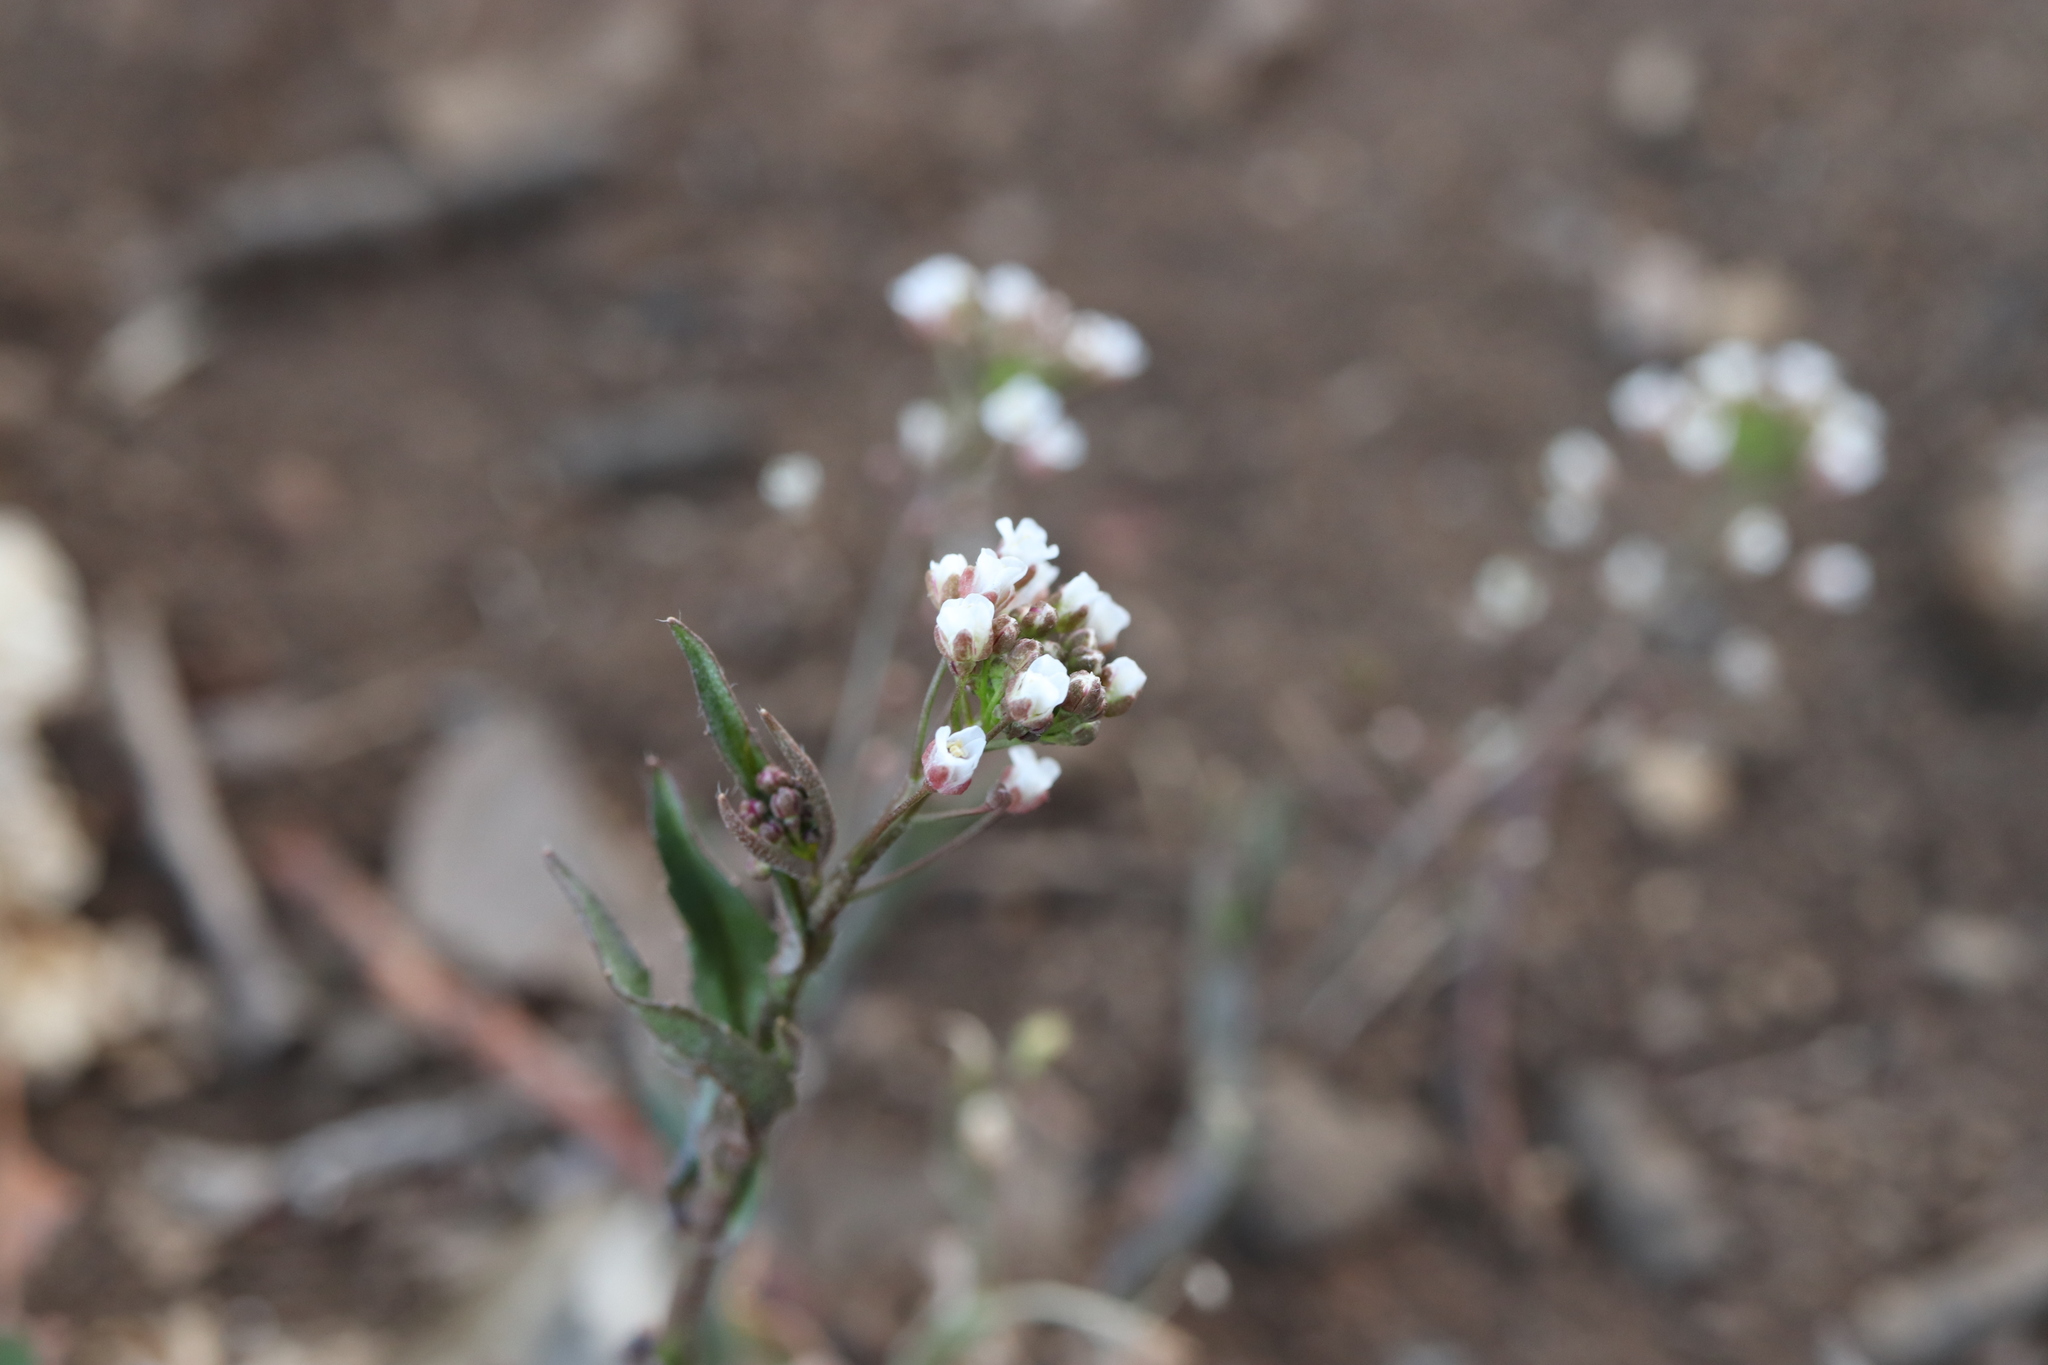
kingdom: Plantae
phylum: Tracheophyta
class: Magnoliopsida
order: Brassicales
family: Brassicaceae
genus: Capsella
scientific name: Capsella bursa-pastoris
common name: Shepherd's purse
